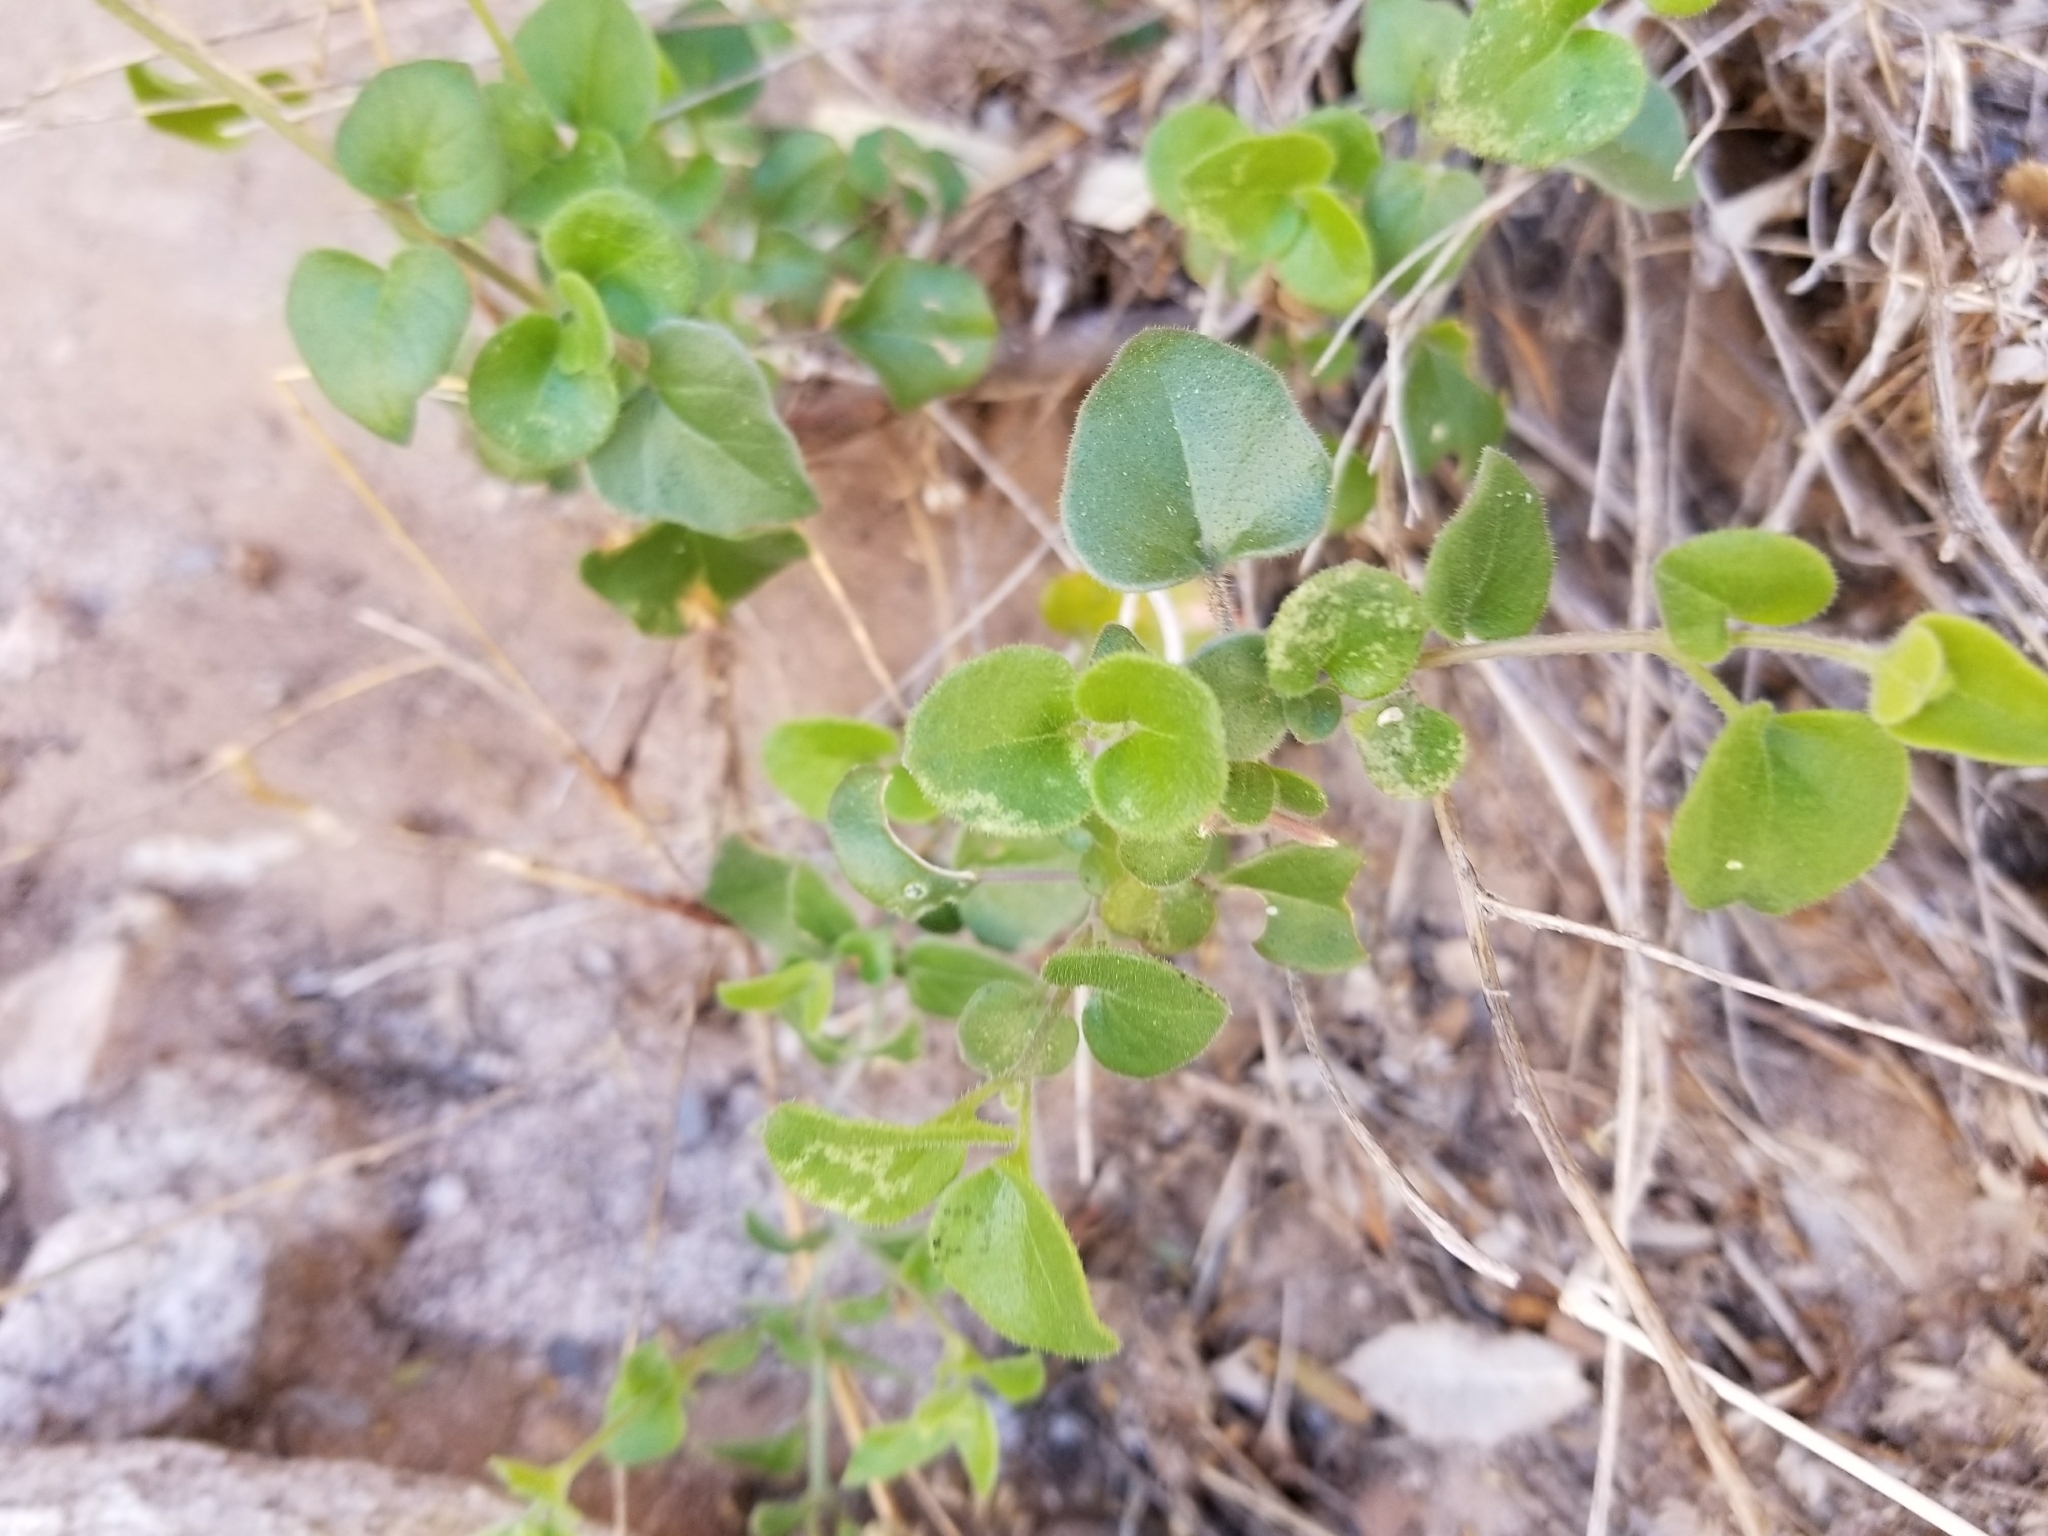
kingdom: Plantae
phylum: Tracheophyta
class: Magnoliopsida
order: Caryophyllales
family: Nyctaginaceae
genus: Mirabilis
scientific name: Mirabilis laevis
